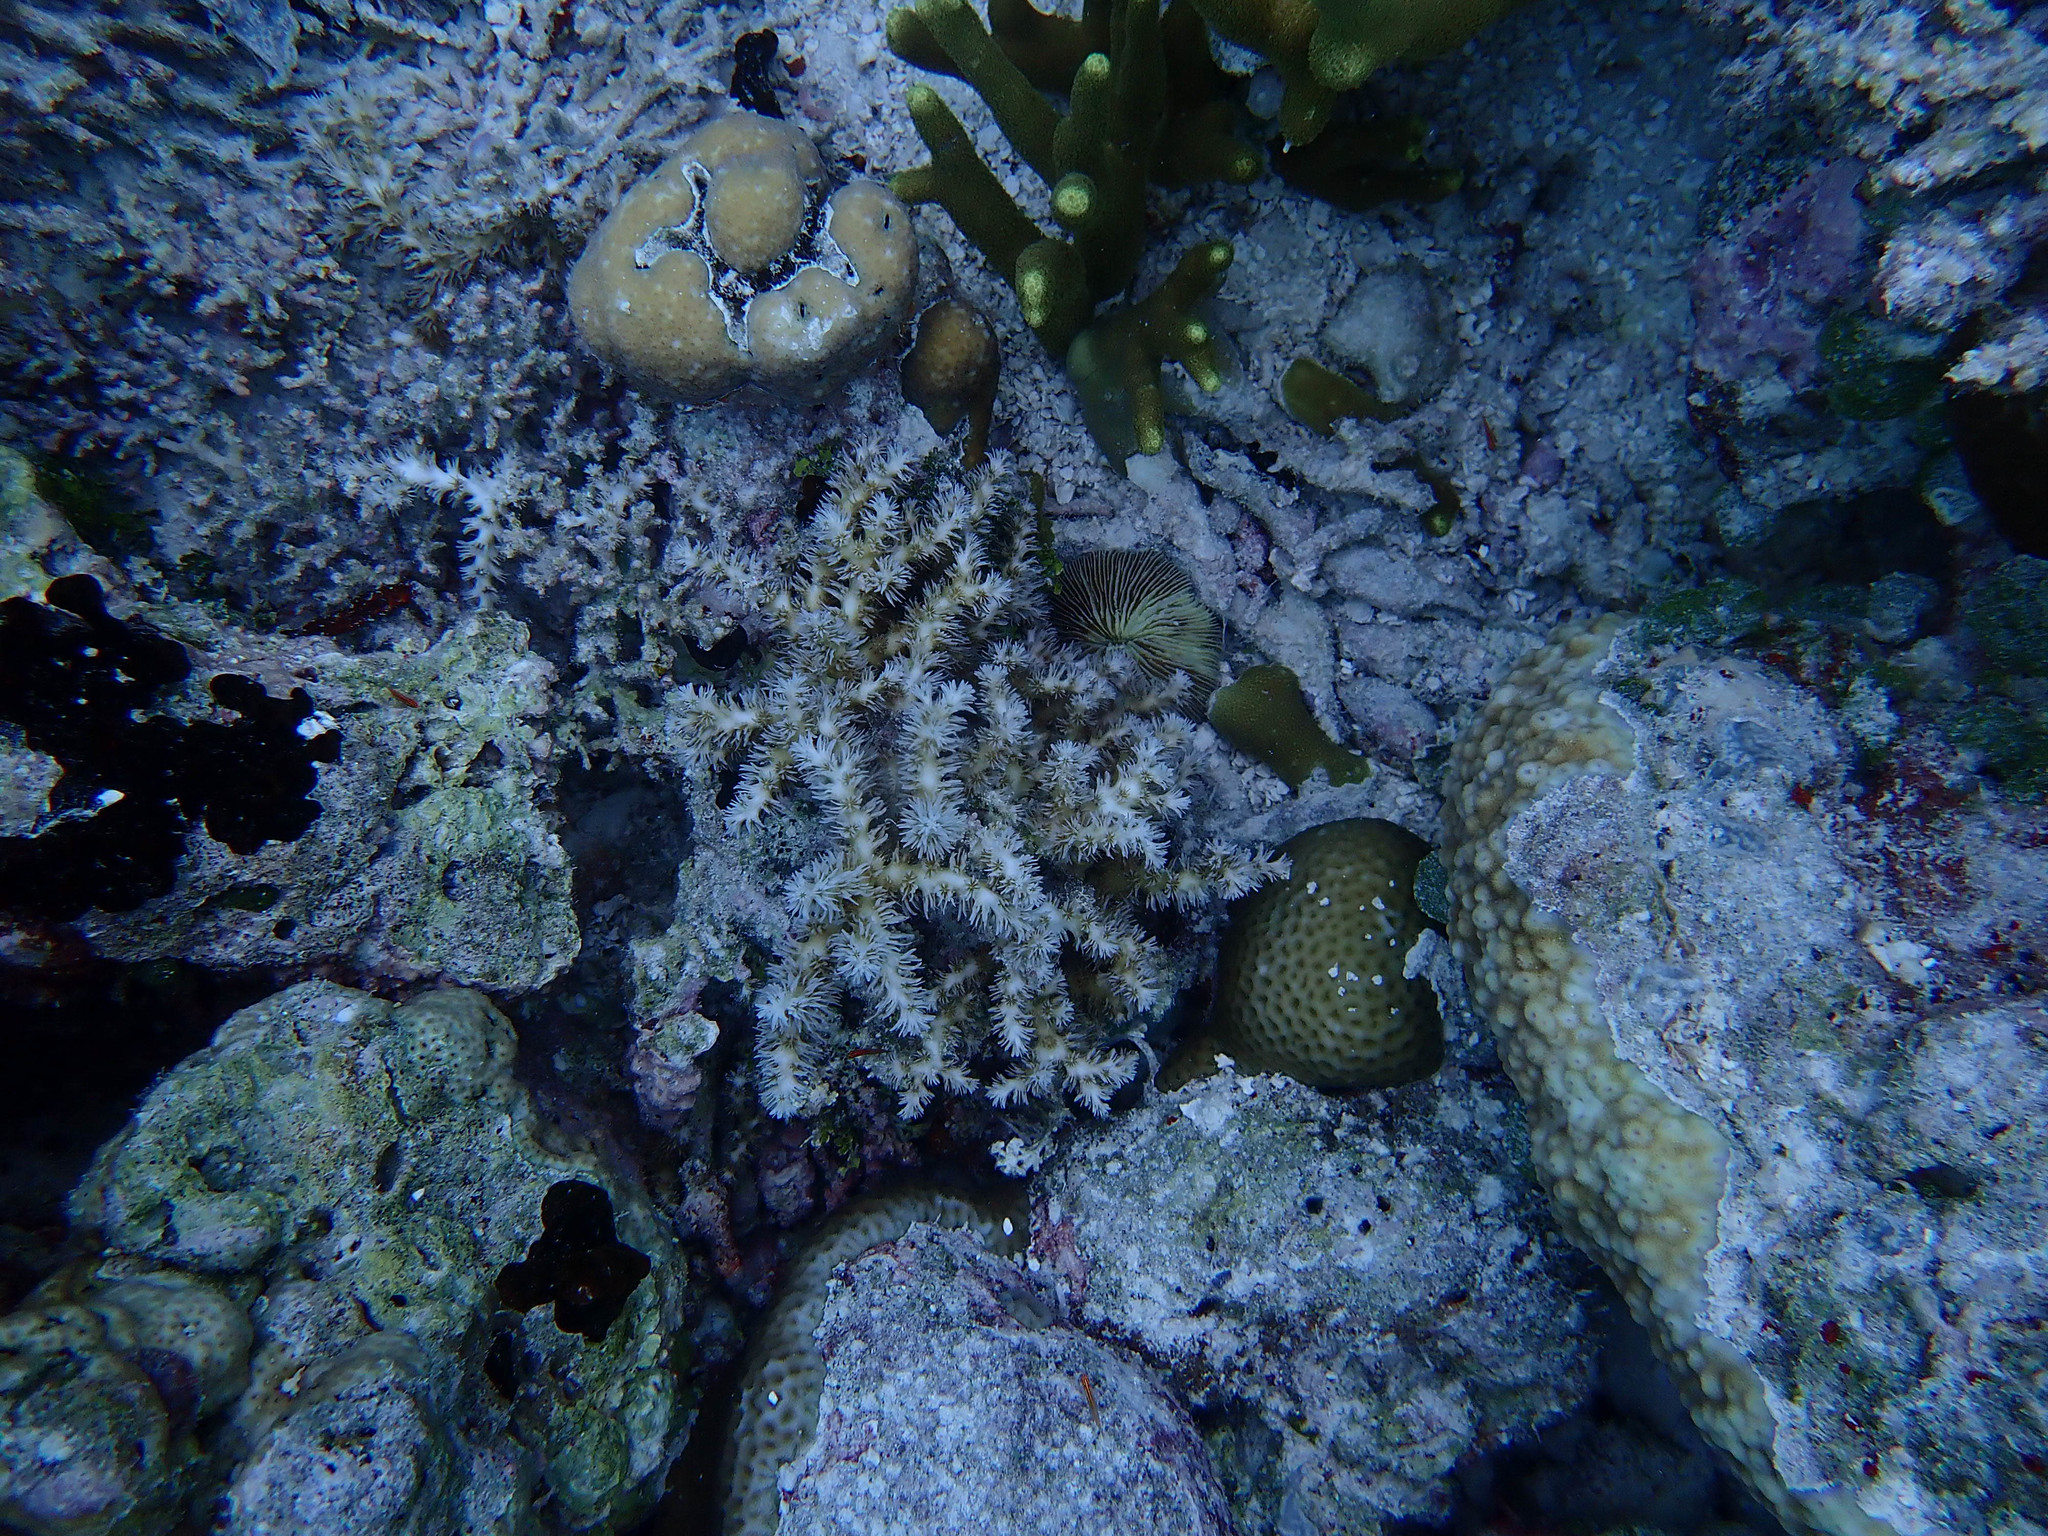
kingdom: Animalia
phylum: Cnidaria
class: Anthozoa
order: Scleractinia
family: Euphylliidae
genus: Galaxea
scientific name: Galaxea horrescens
